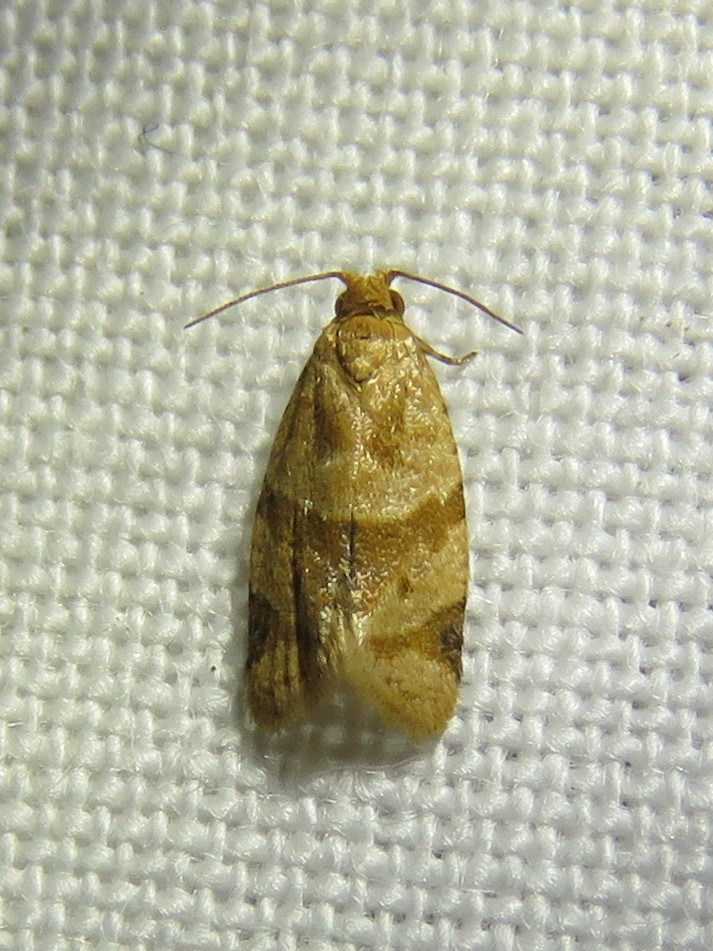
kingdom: Animalia
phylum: Arthropoda
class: Insecta
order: Lepidoptera
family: Tortricidae
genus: Clepsis
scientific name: Clepsis peritana
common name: Garden tortrix
